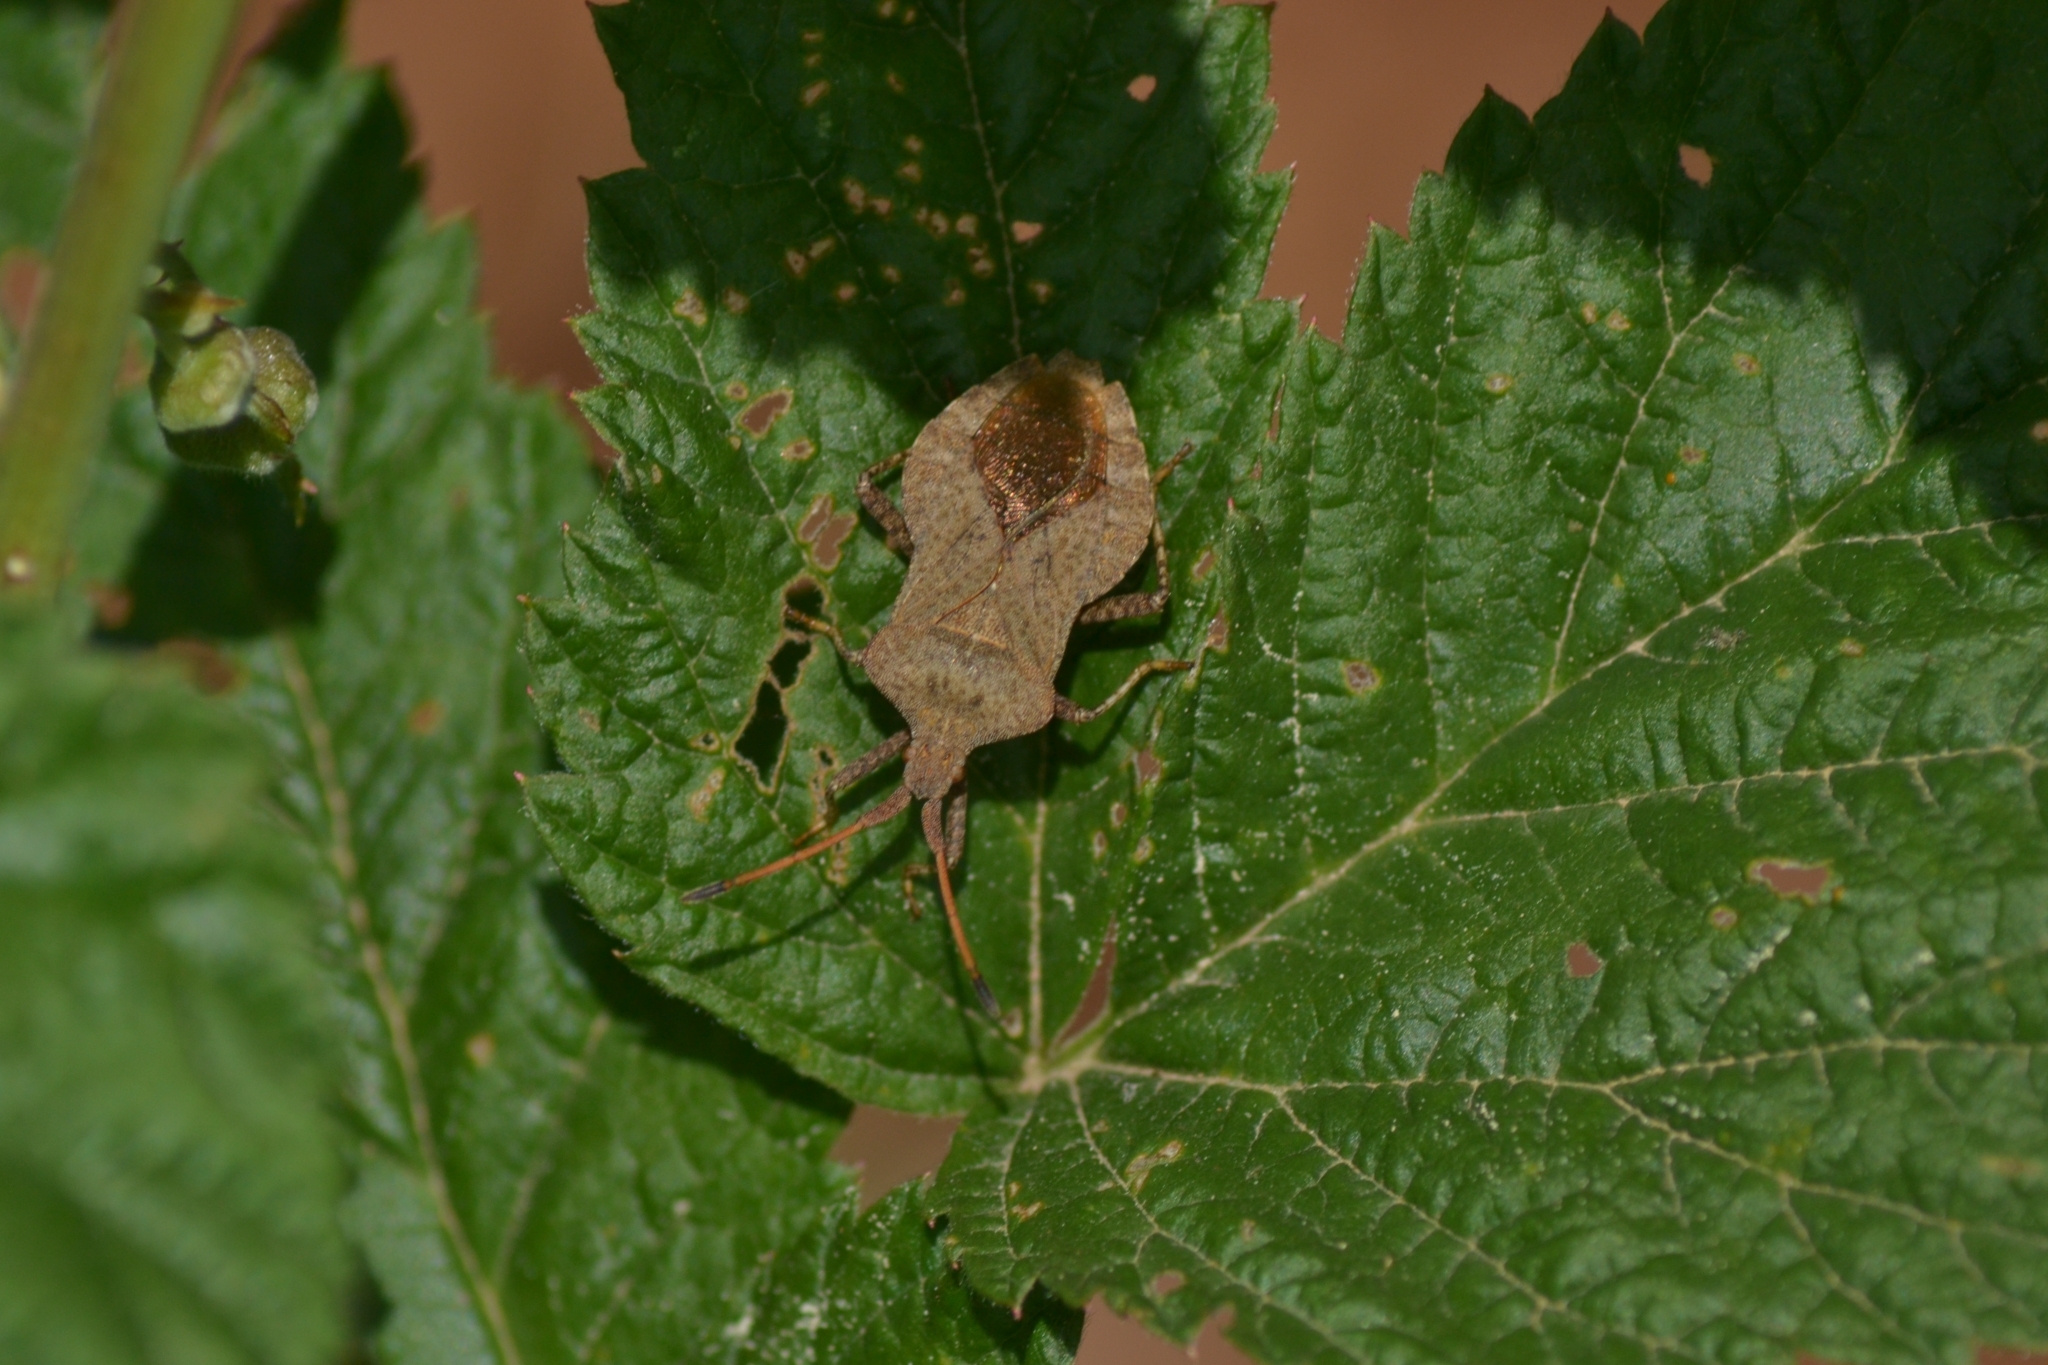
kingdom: Animalia
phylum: Arthropoda
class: Insecta
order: Hemiptera
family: Coreidae
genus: Coreus
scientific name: Coreus marginatus
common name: Dock bug
